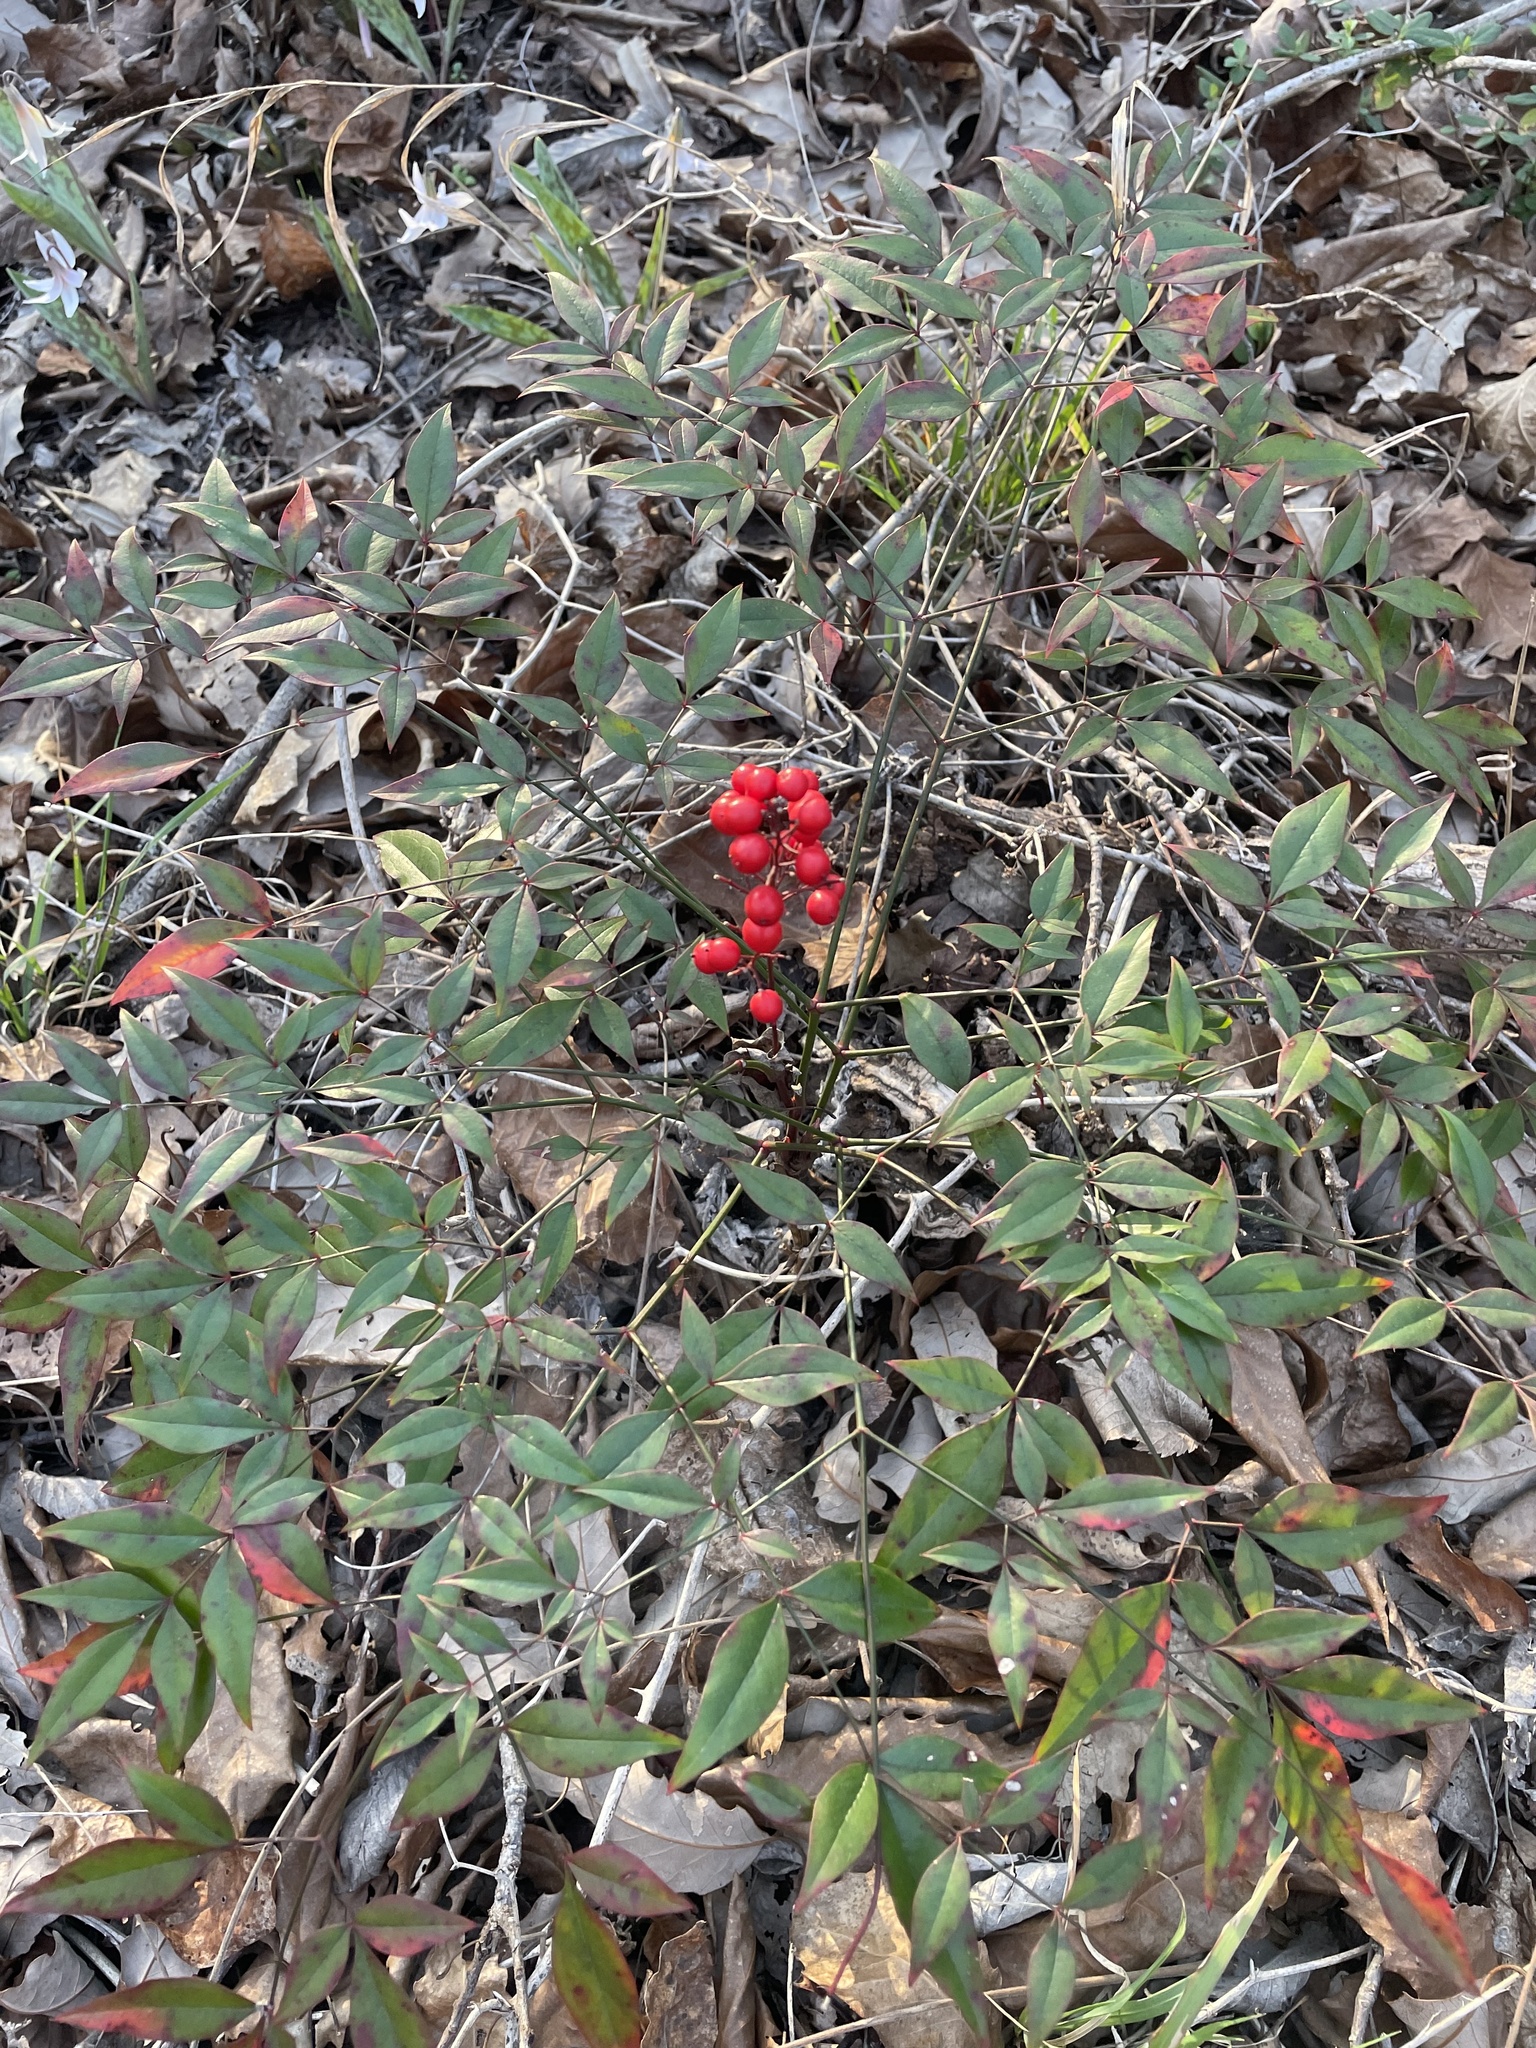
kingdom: Plantae
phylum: Tracheophyta
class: Magnoliopsida
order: Ranunculales
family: Berberidaceae
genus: Nandina
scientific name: Nandina domestica
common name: Sacred bamboo
